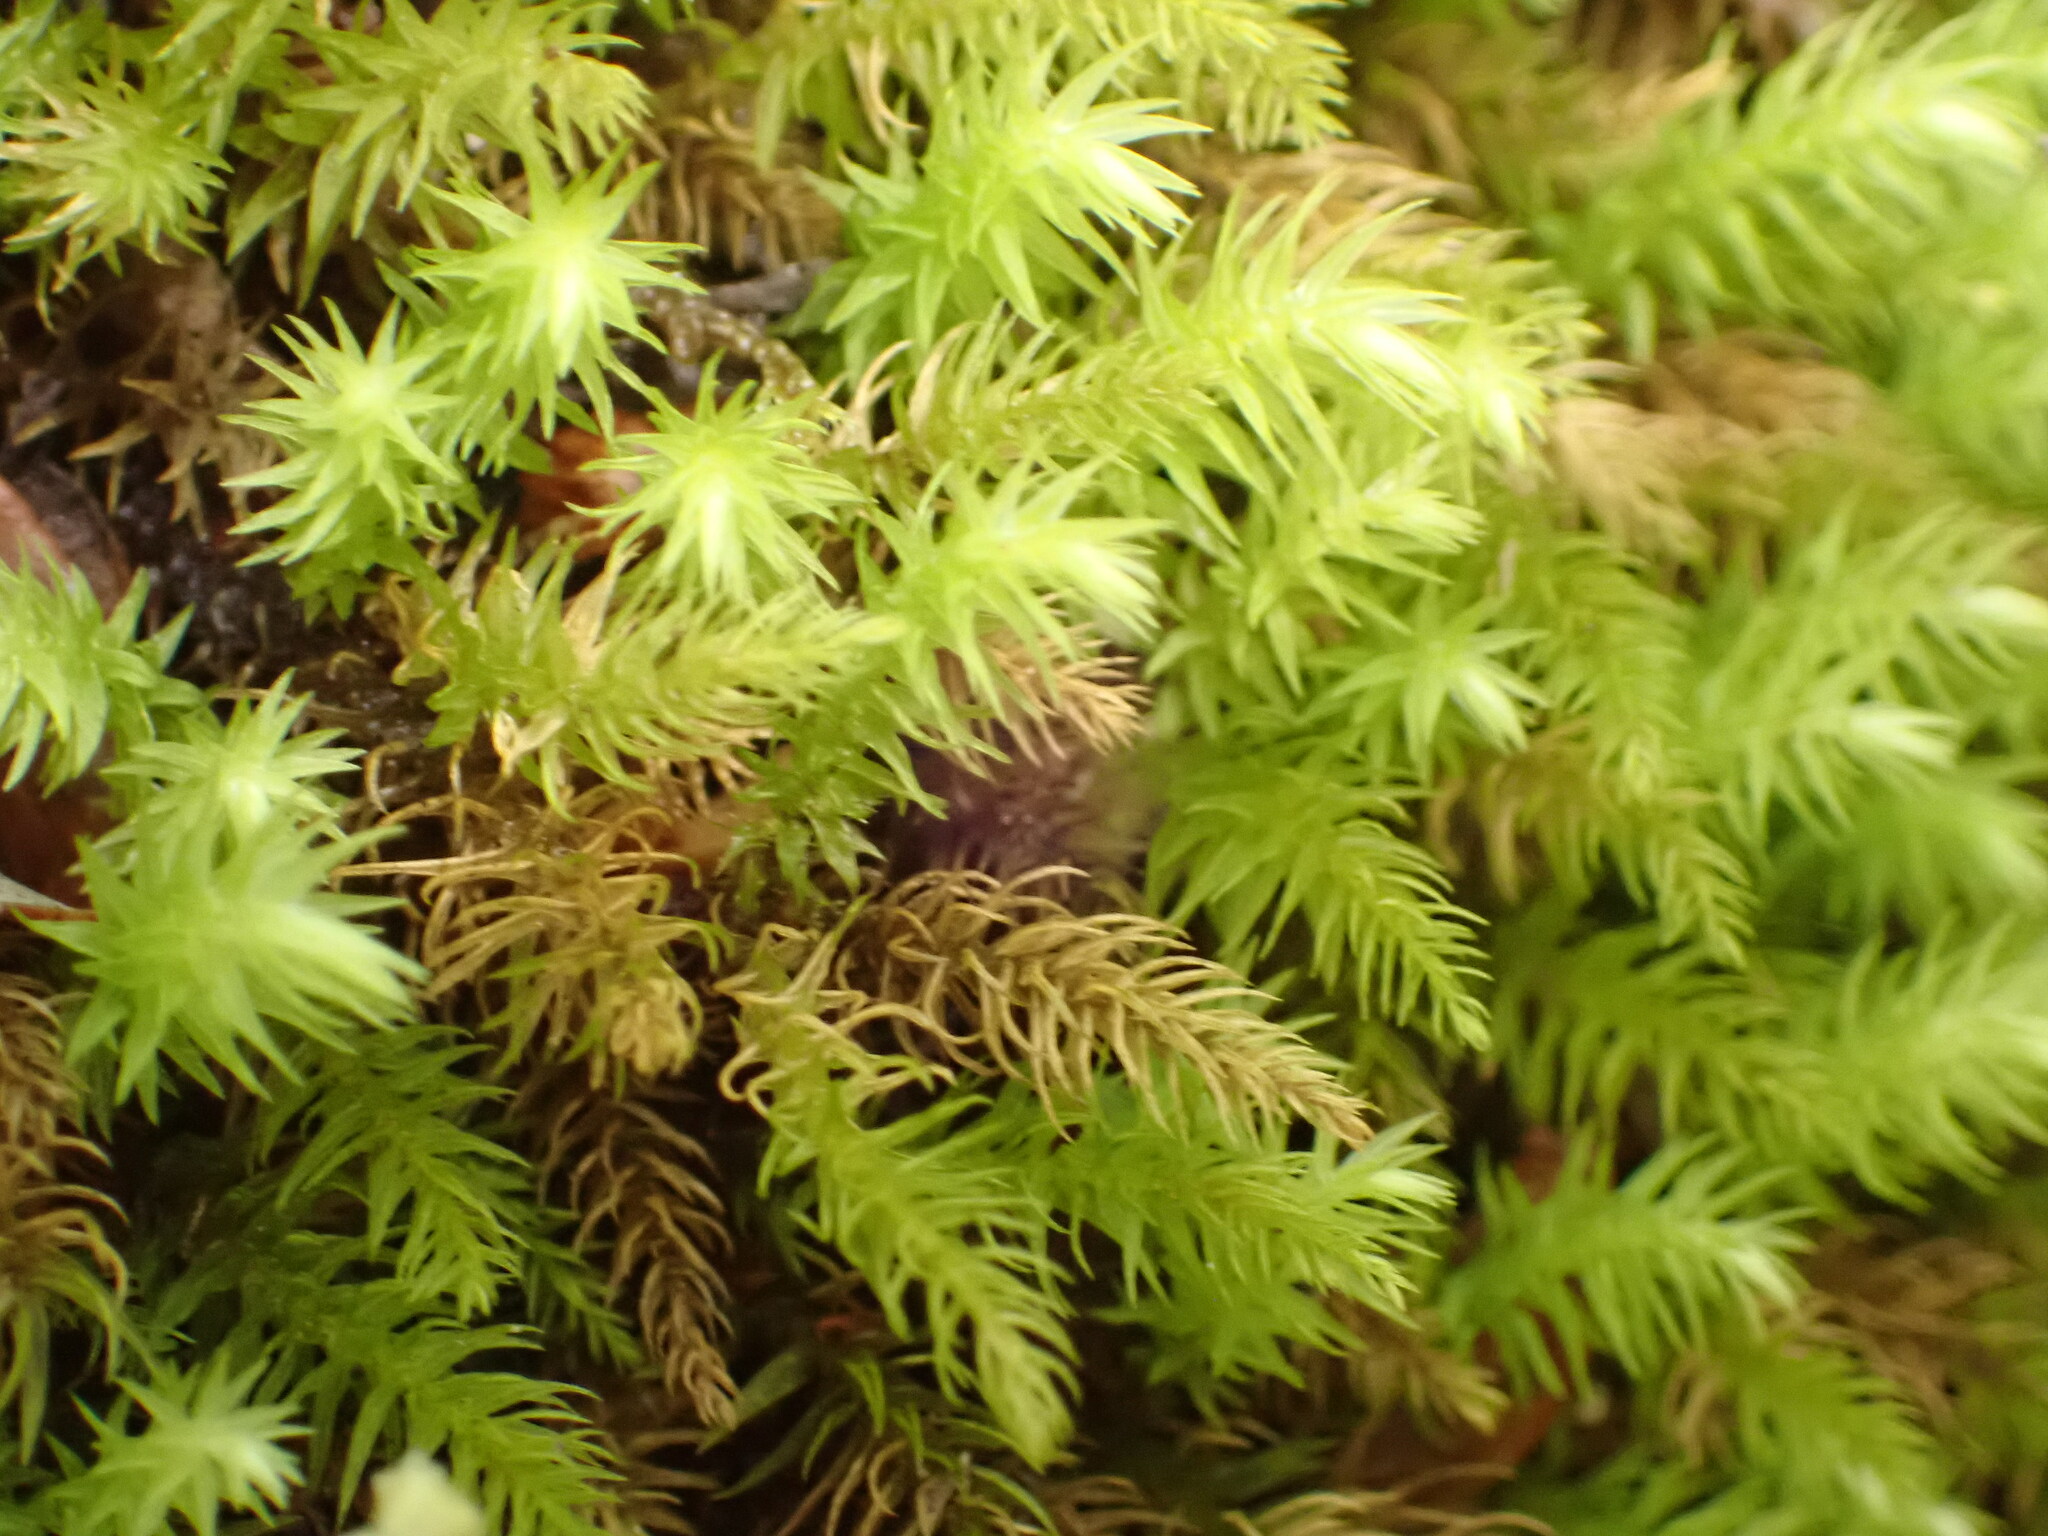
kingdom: Plantae
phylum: Bryophyta
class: Bryopsida
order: Aulacomniales
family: Aulacomniaceae
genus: Hymenodontopsis
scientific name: Hymenodontopsis mnioides
